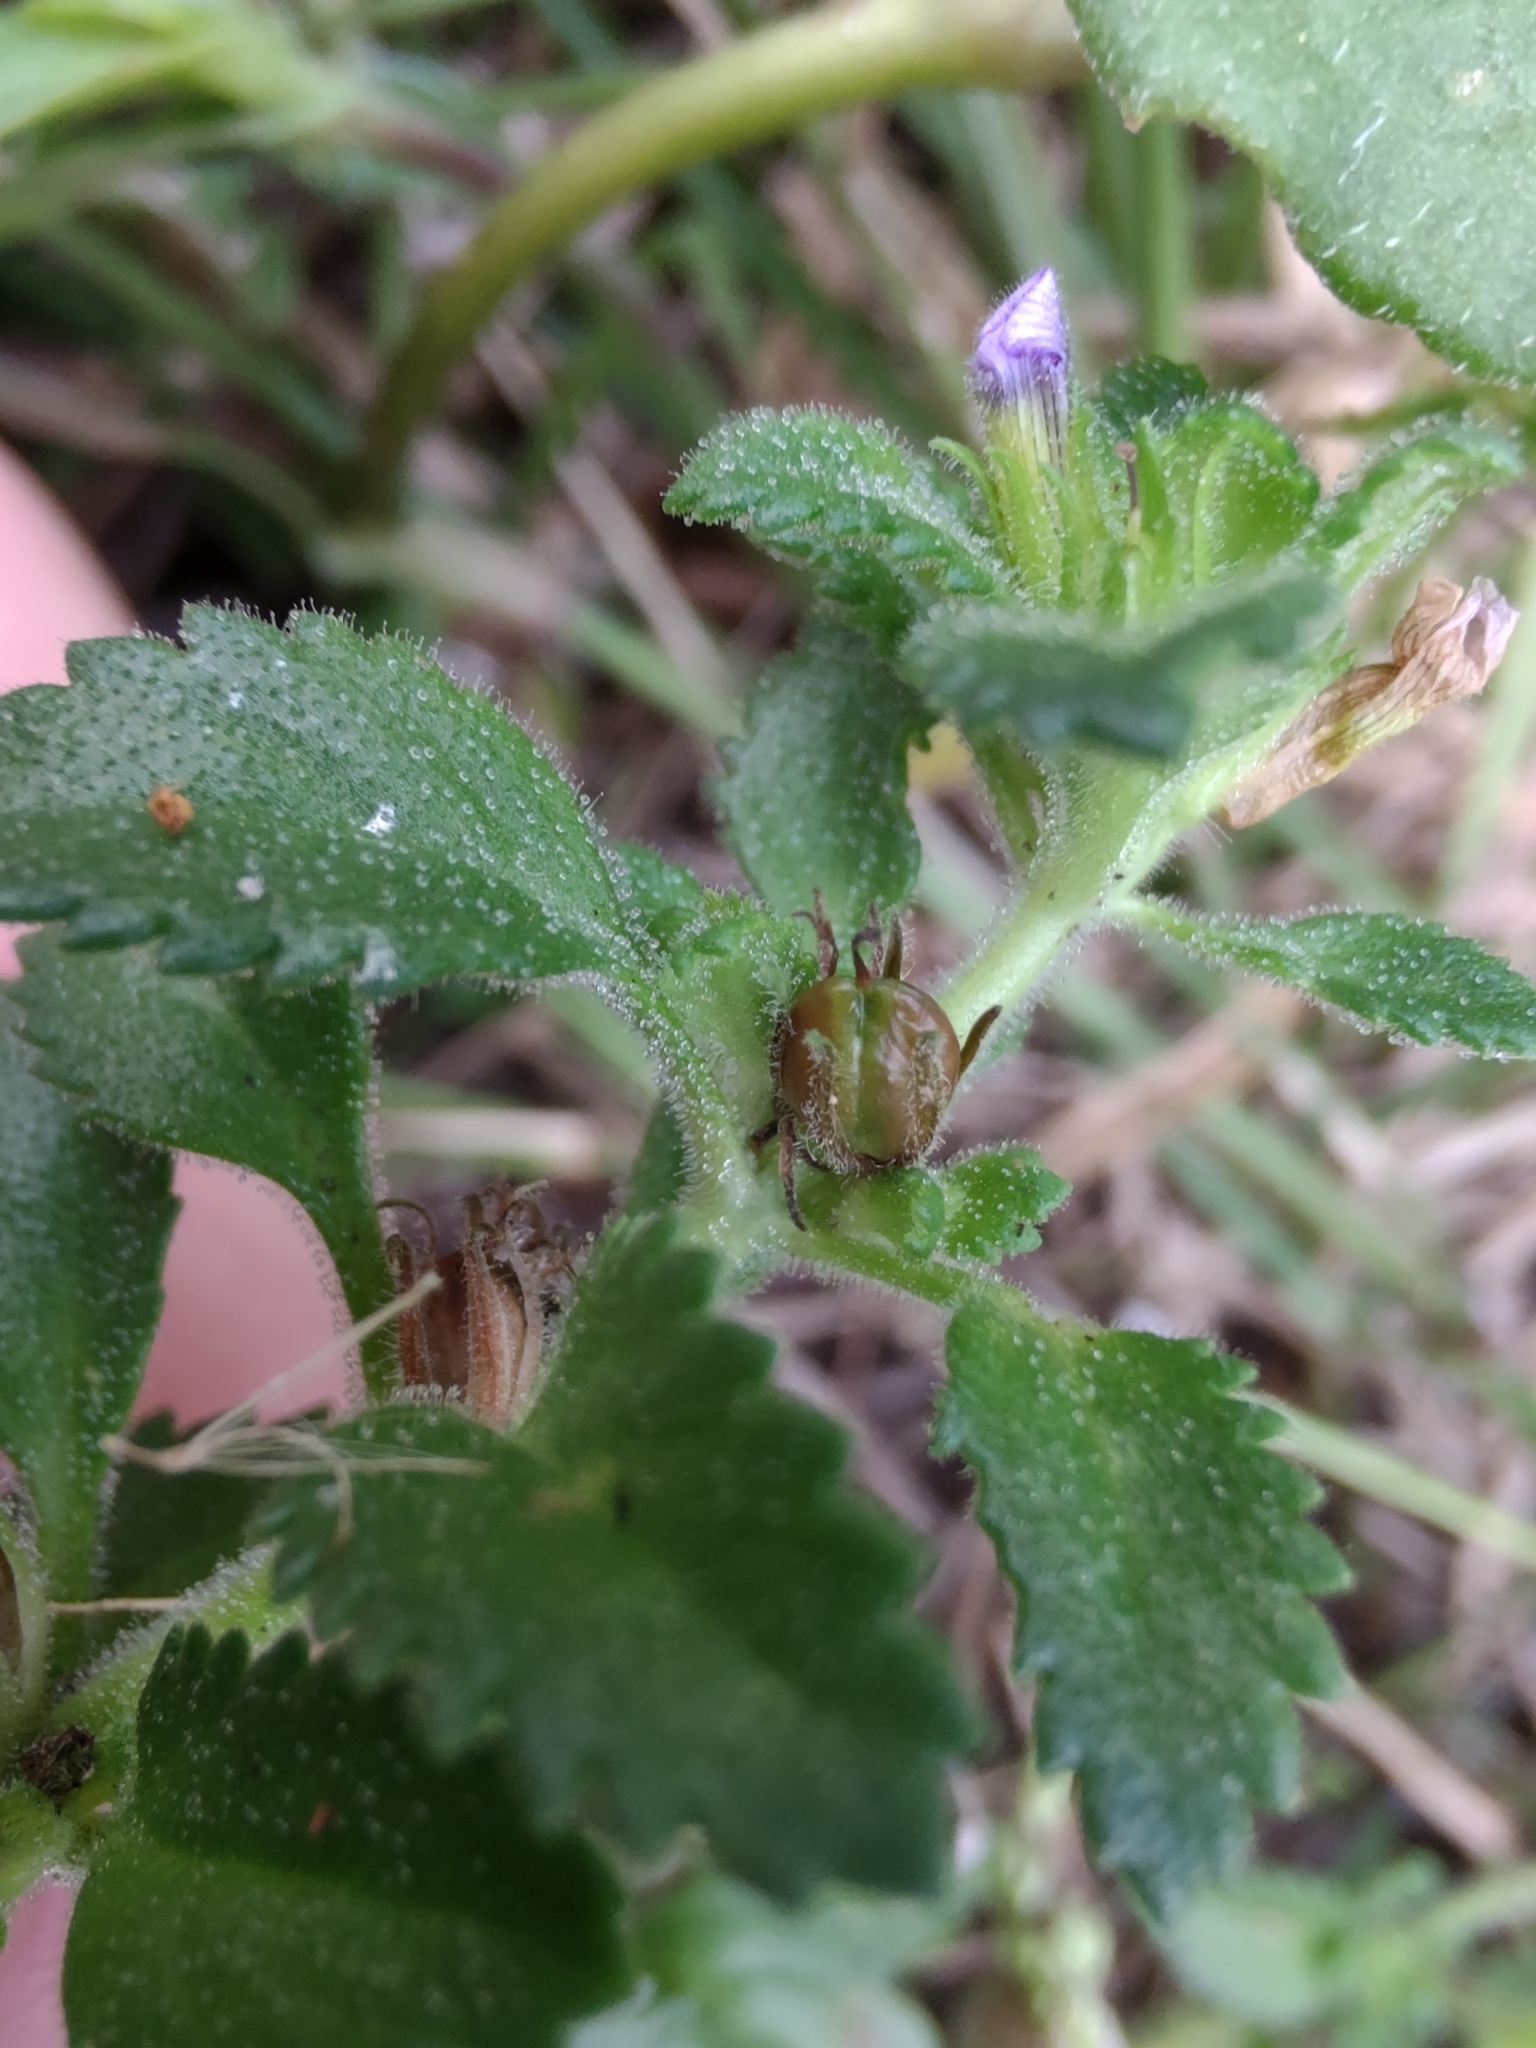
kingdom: Plantae
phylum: Tracheophyta
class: Magnoliopsida
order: Lamiales
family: Plantaginaceae
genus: Stemodia
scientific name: Stemodia verticillata
